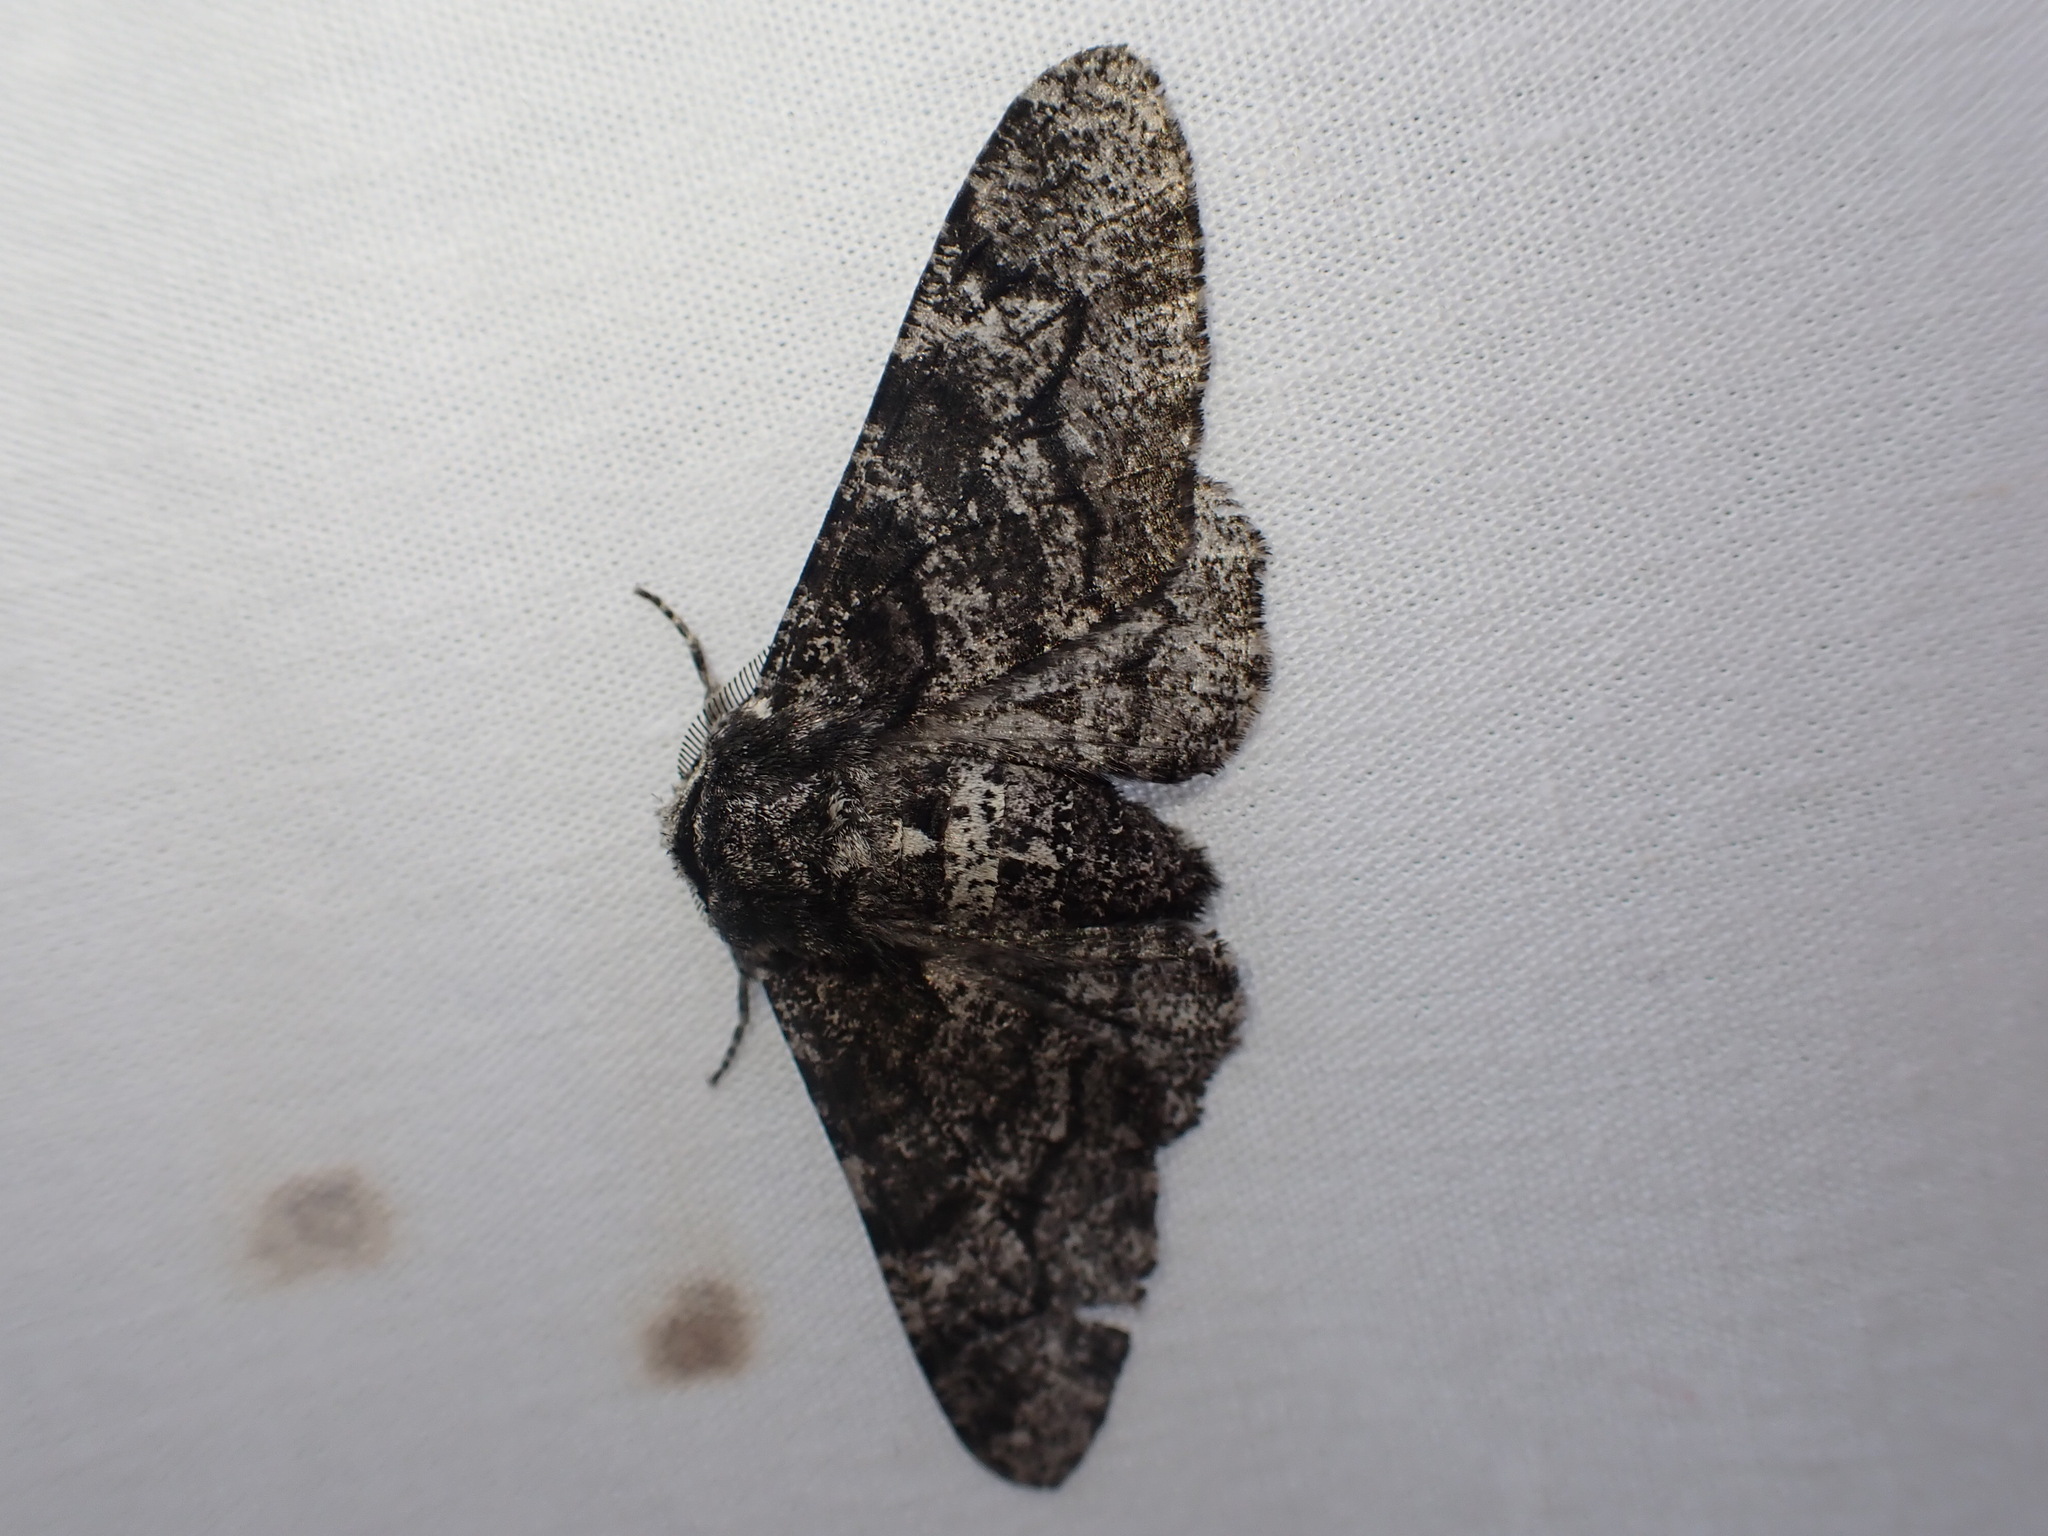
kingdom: Animalia
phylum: Arthropoda
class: Insecta
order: Lepidoptera
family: Geometridae
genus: Biston
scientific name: Biston betularia
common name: Peppered moth
